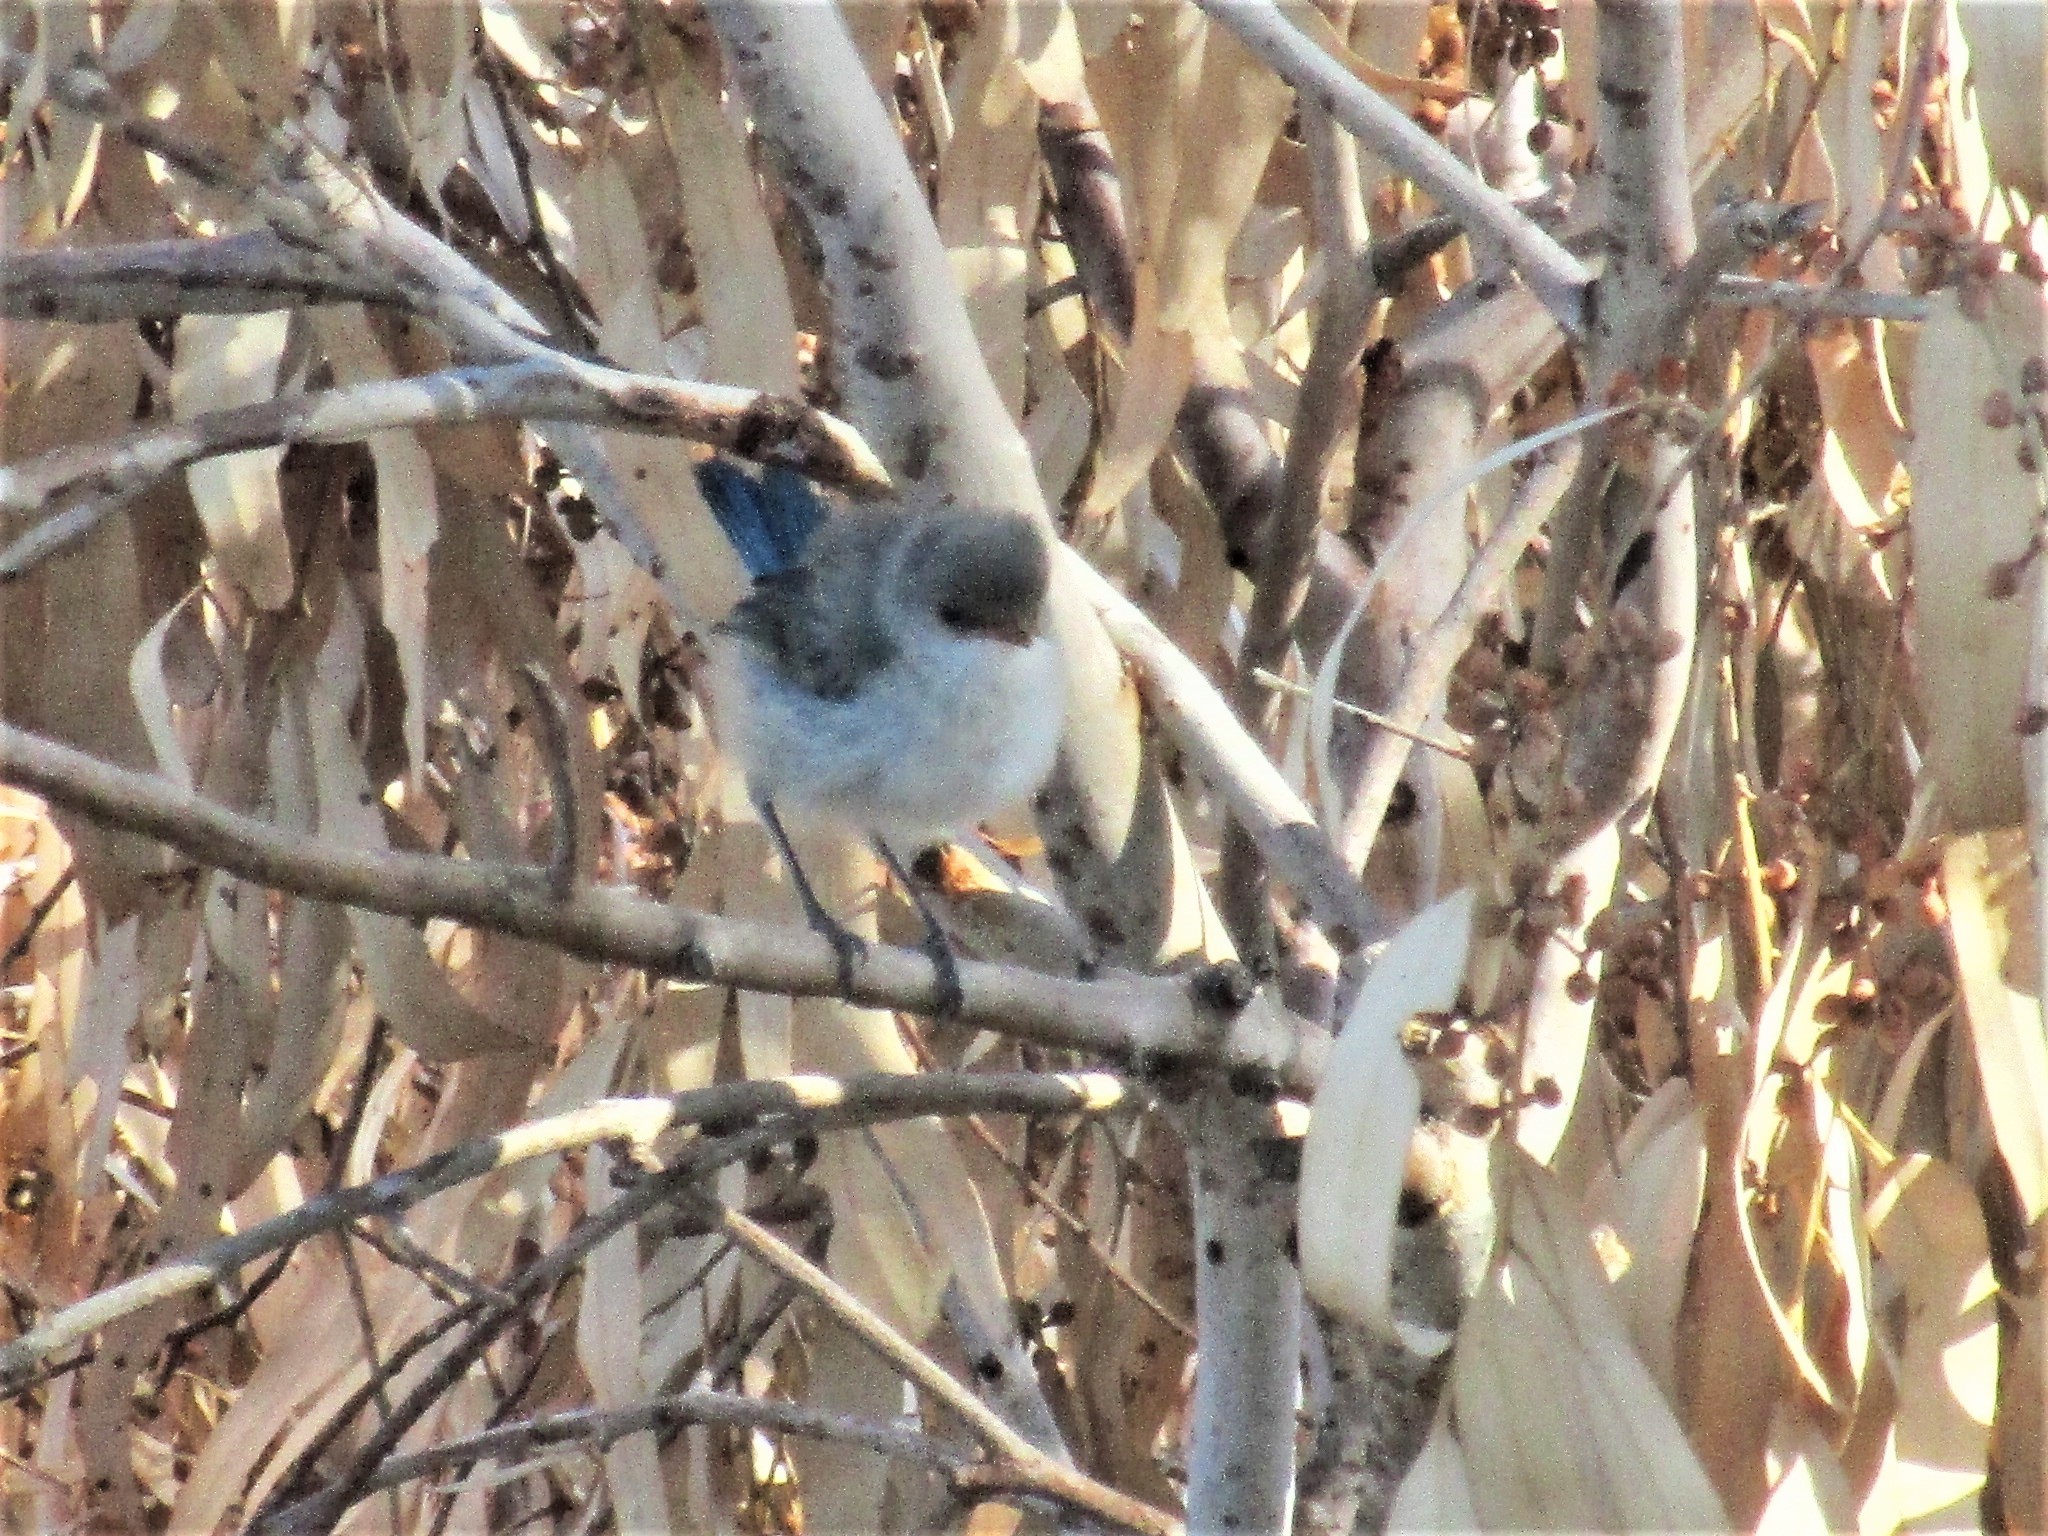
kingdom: Animalia
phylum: Chordata
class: Aves
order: Passeriformes
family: Maluridae
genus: Malurus
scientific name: Malurus splendens
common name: Splendid fairywren
